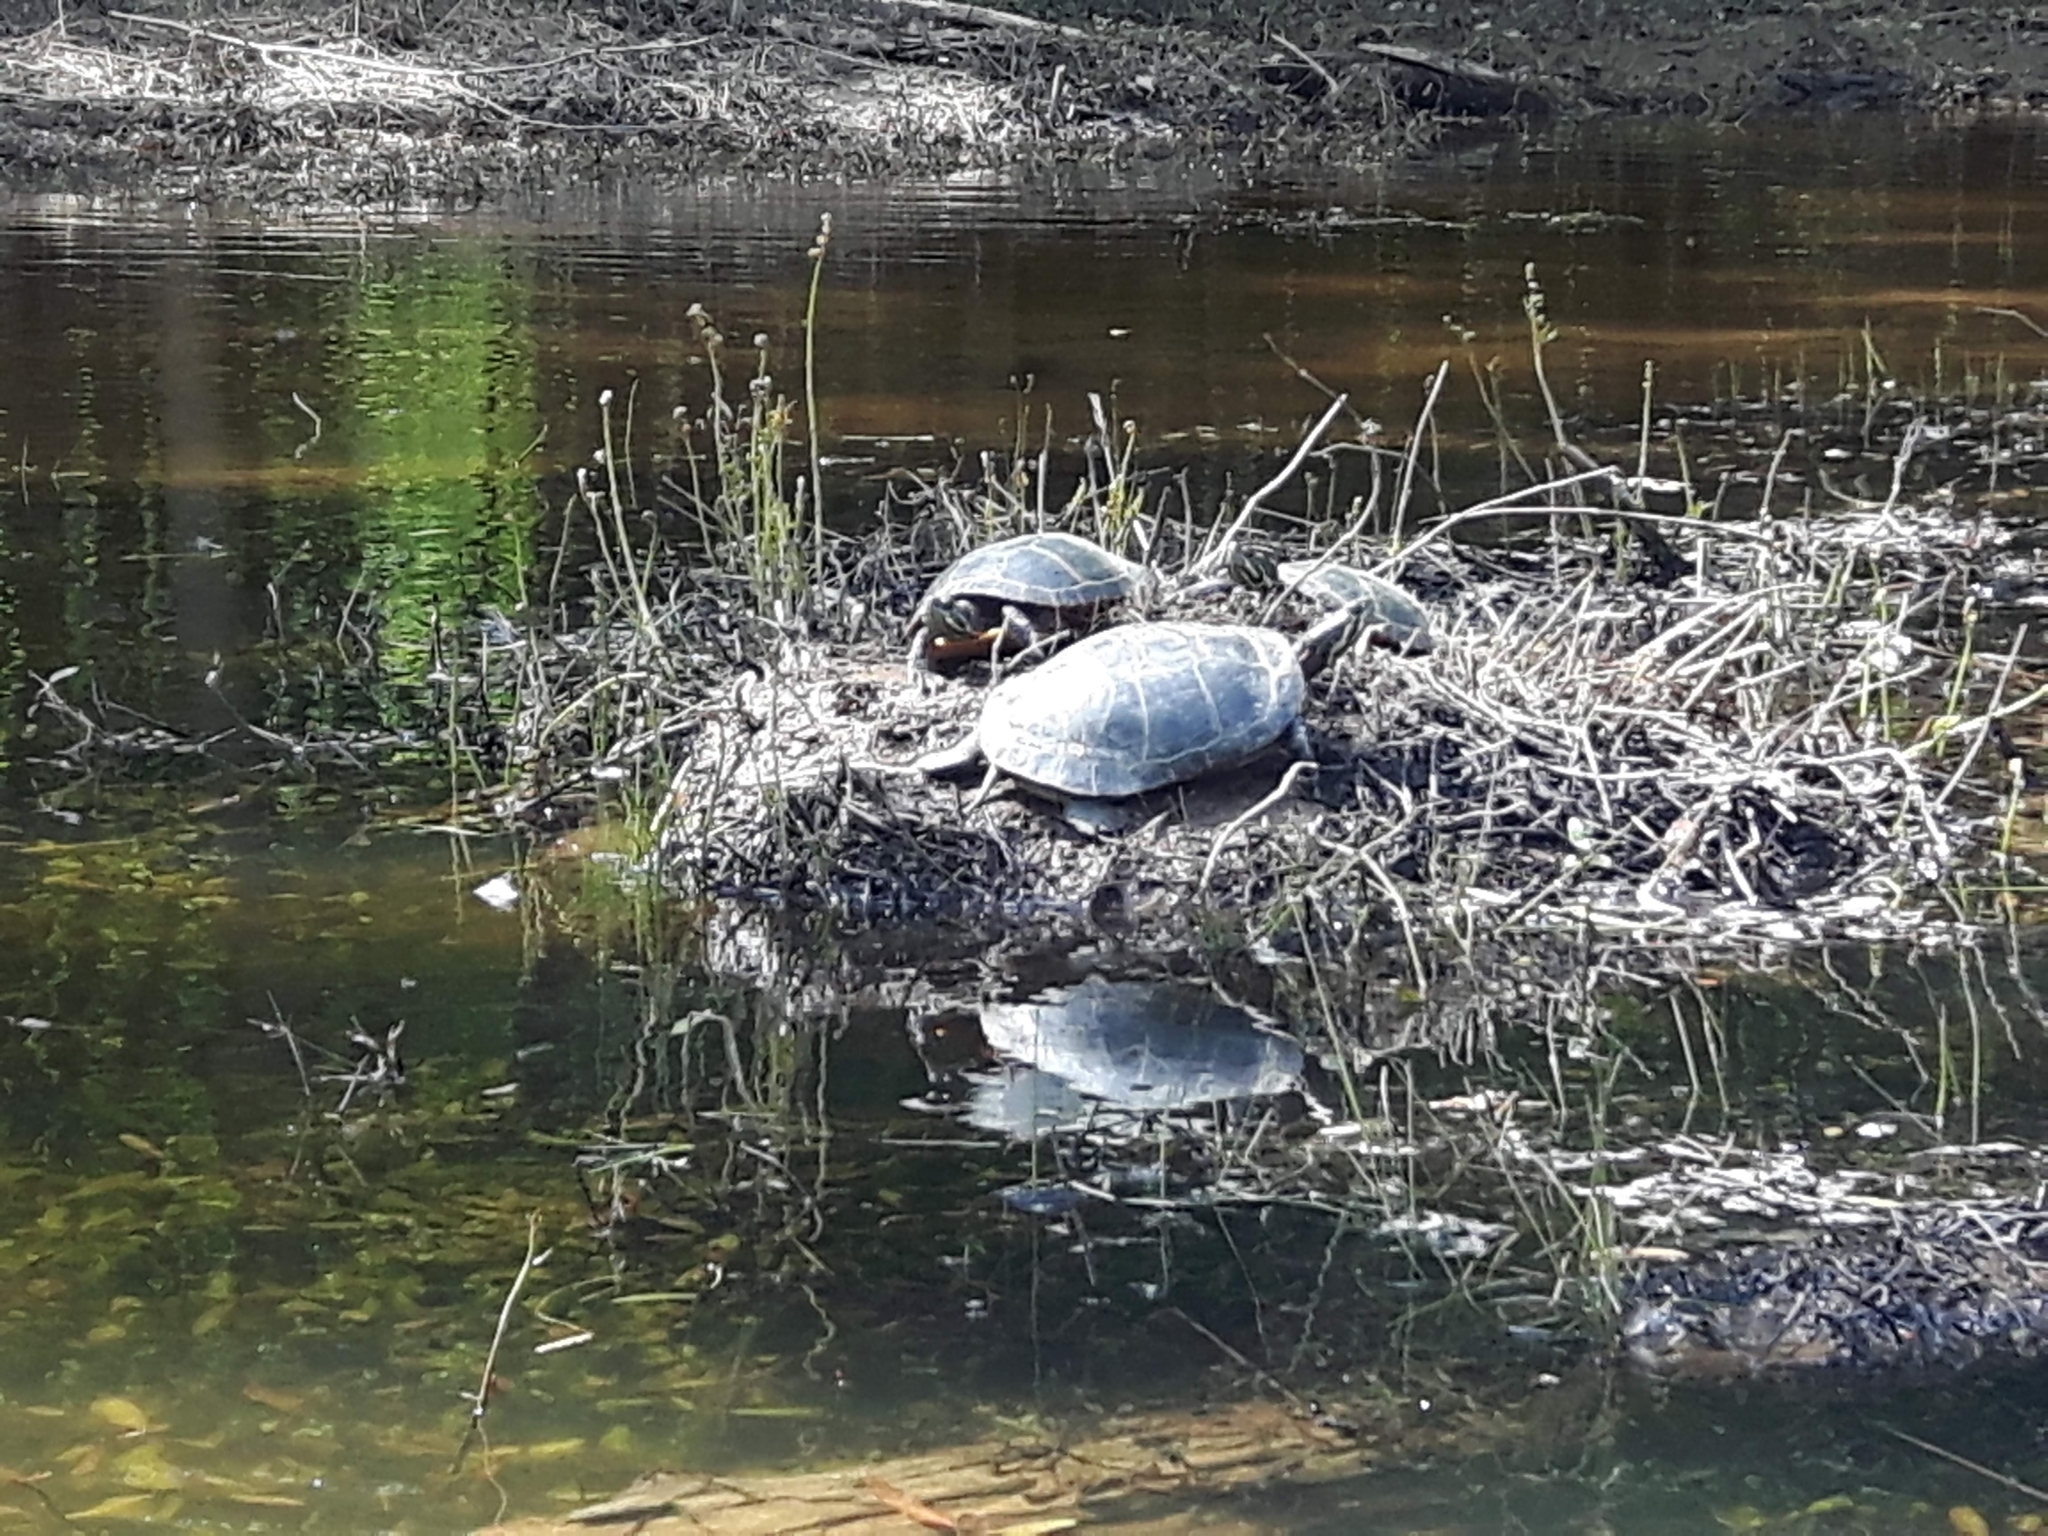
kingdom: Animalia
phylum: Chordata
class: Testudines
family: Emydidae
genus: Chrysemys
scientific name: Chrysemys picta
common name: Painted turtle
